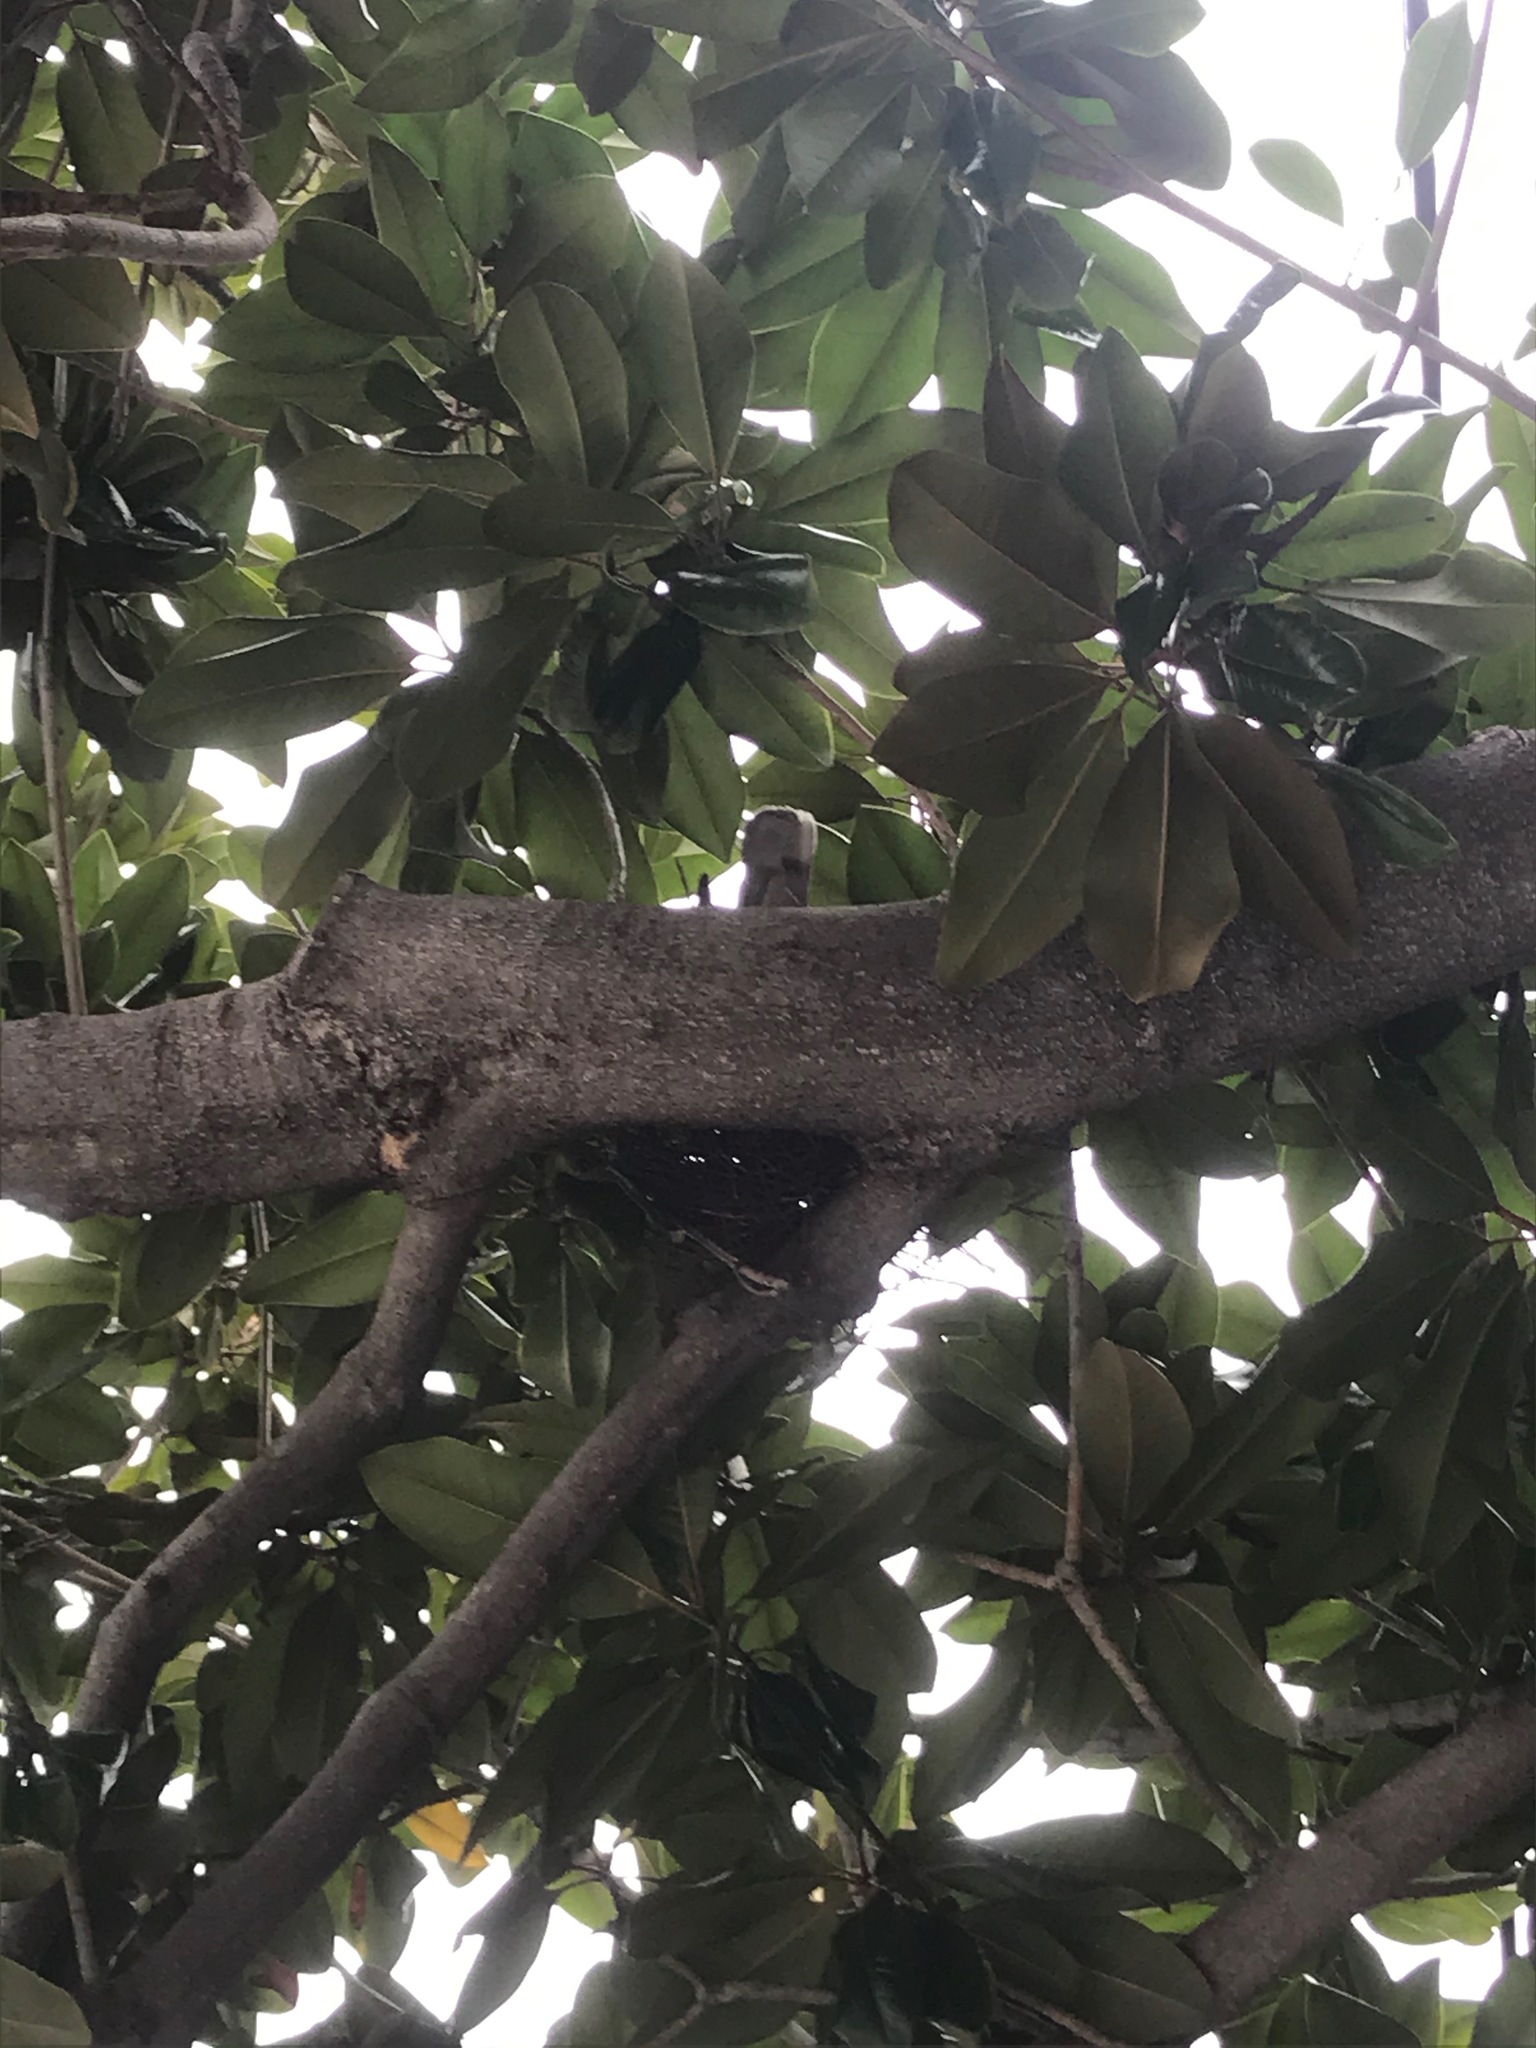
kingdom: Animalia
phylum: Chordata
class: Aves
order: Columbiformes
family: Columbidae
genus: Patagioenas
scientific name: Patagioenas fasciata
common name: Band-tailed pigeon
